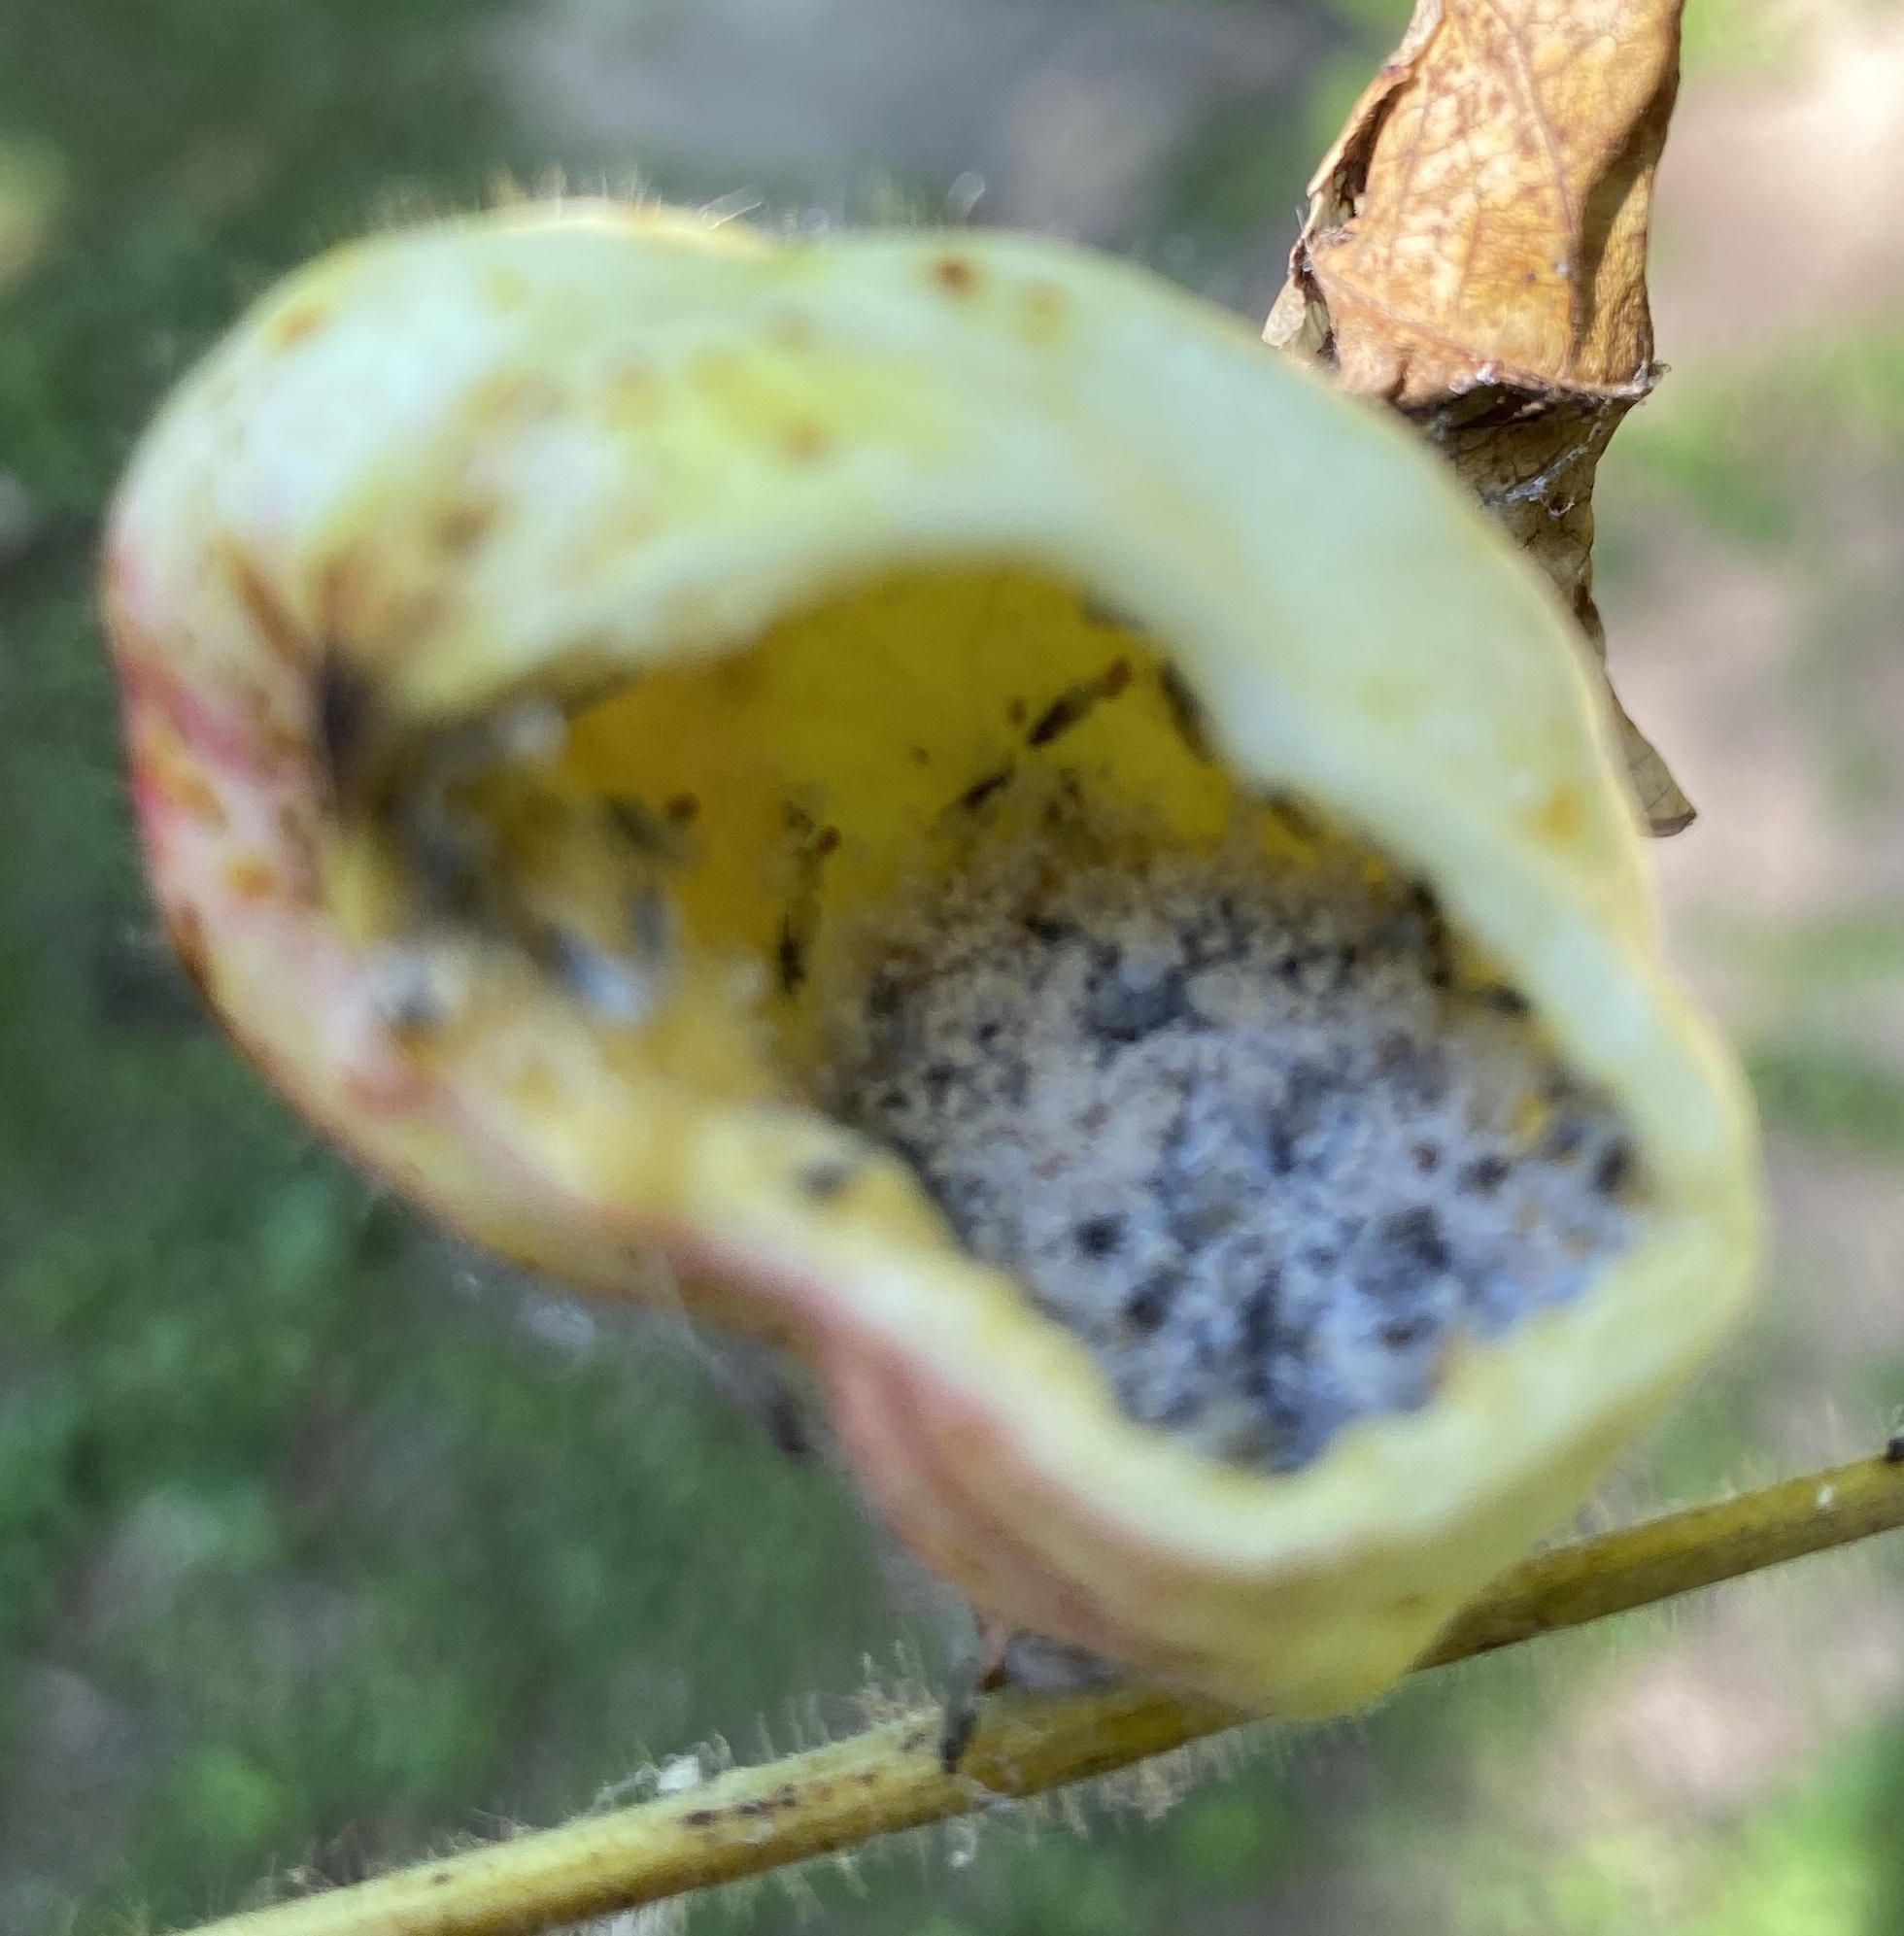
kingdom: Animalia
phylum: Arthropoda
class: Insecta
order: Hemiptera
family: Aphididae
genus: Melaphis
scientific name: Melaphis rhois
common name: Sumac gall aphid
